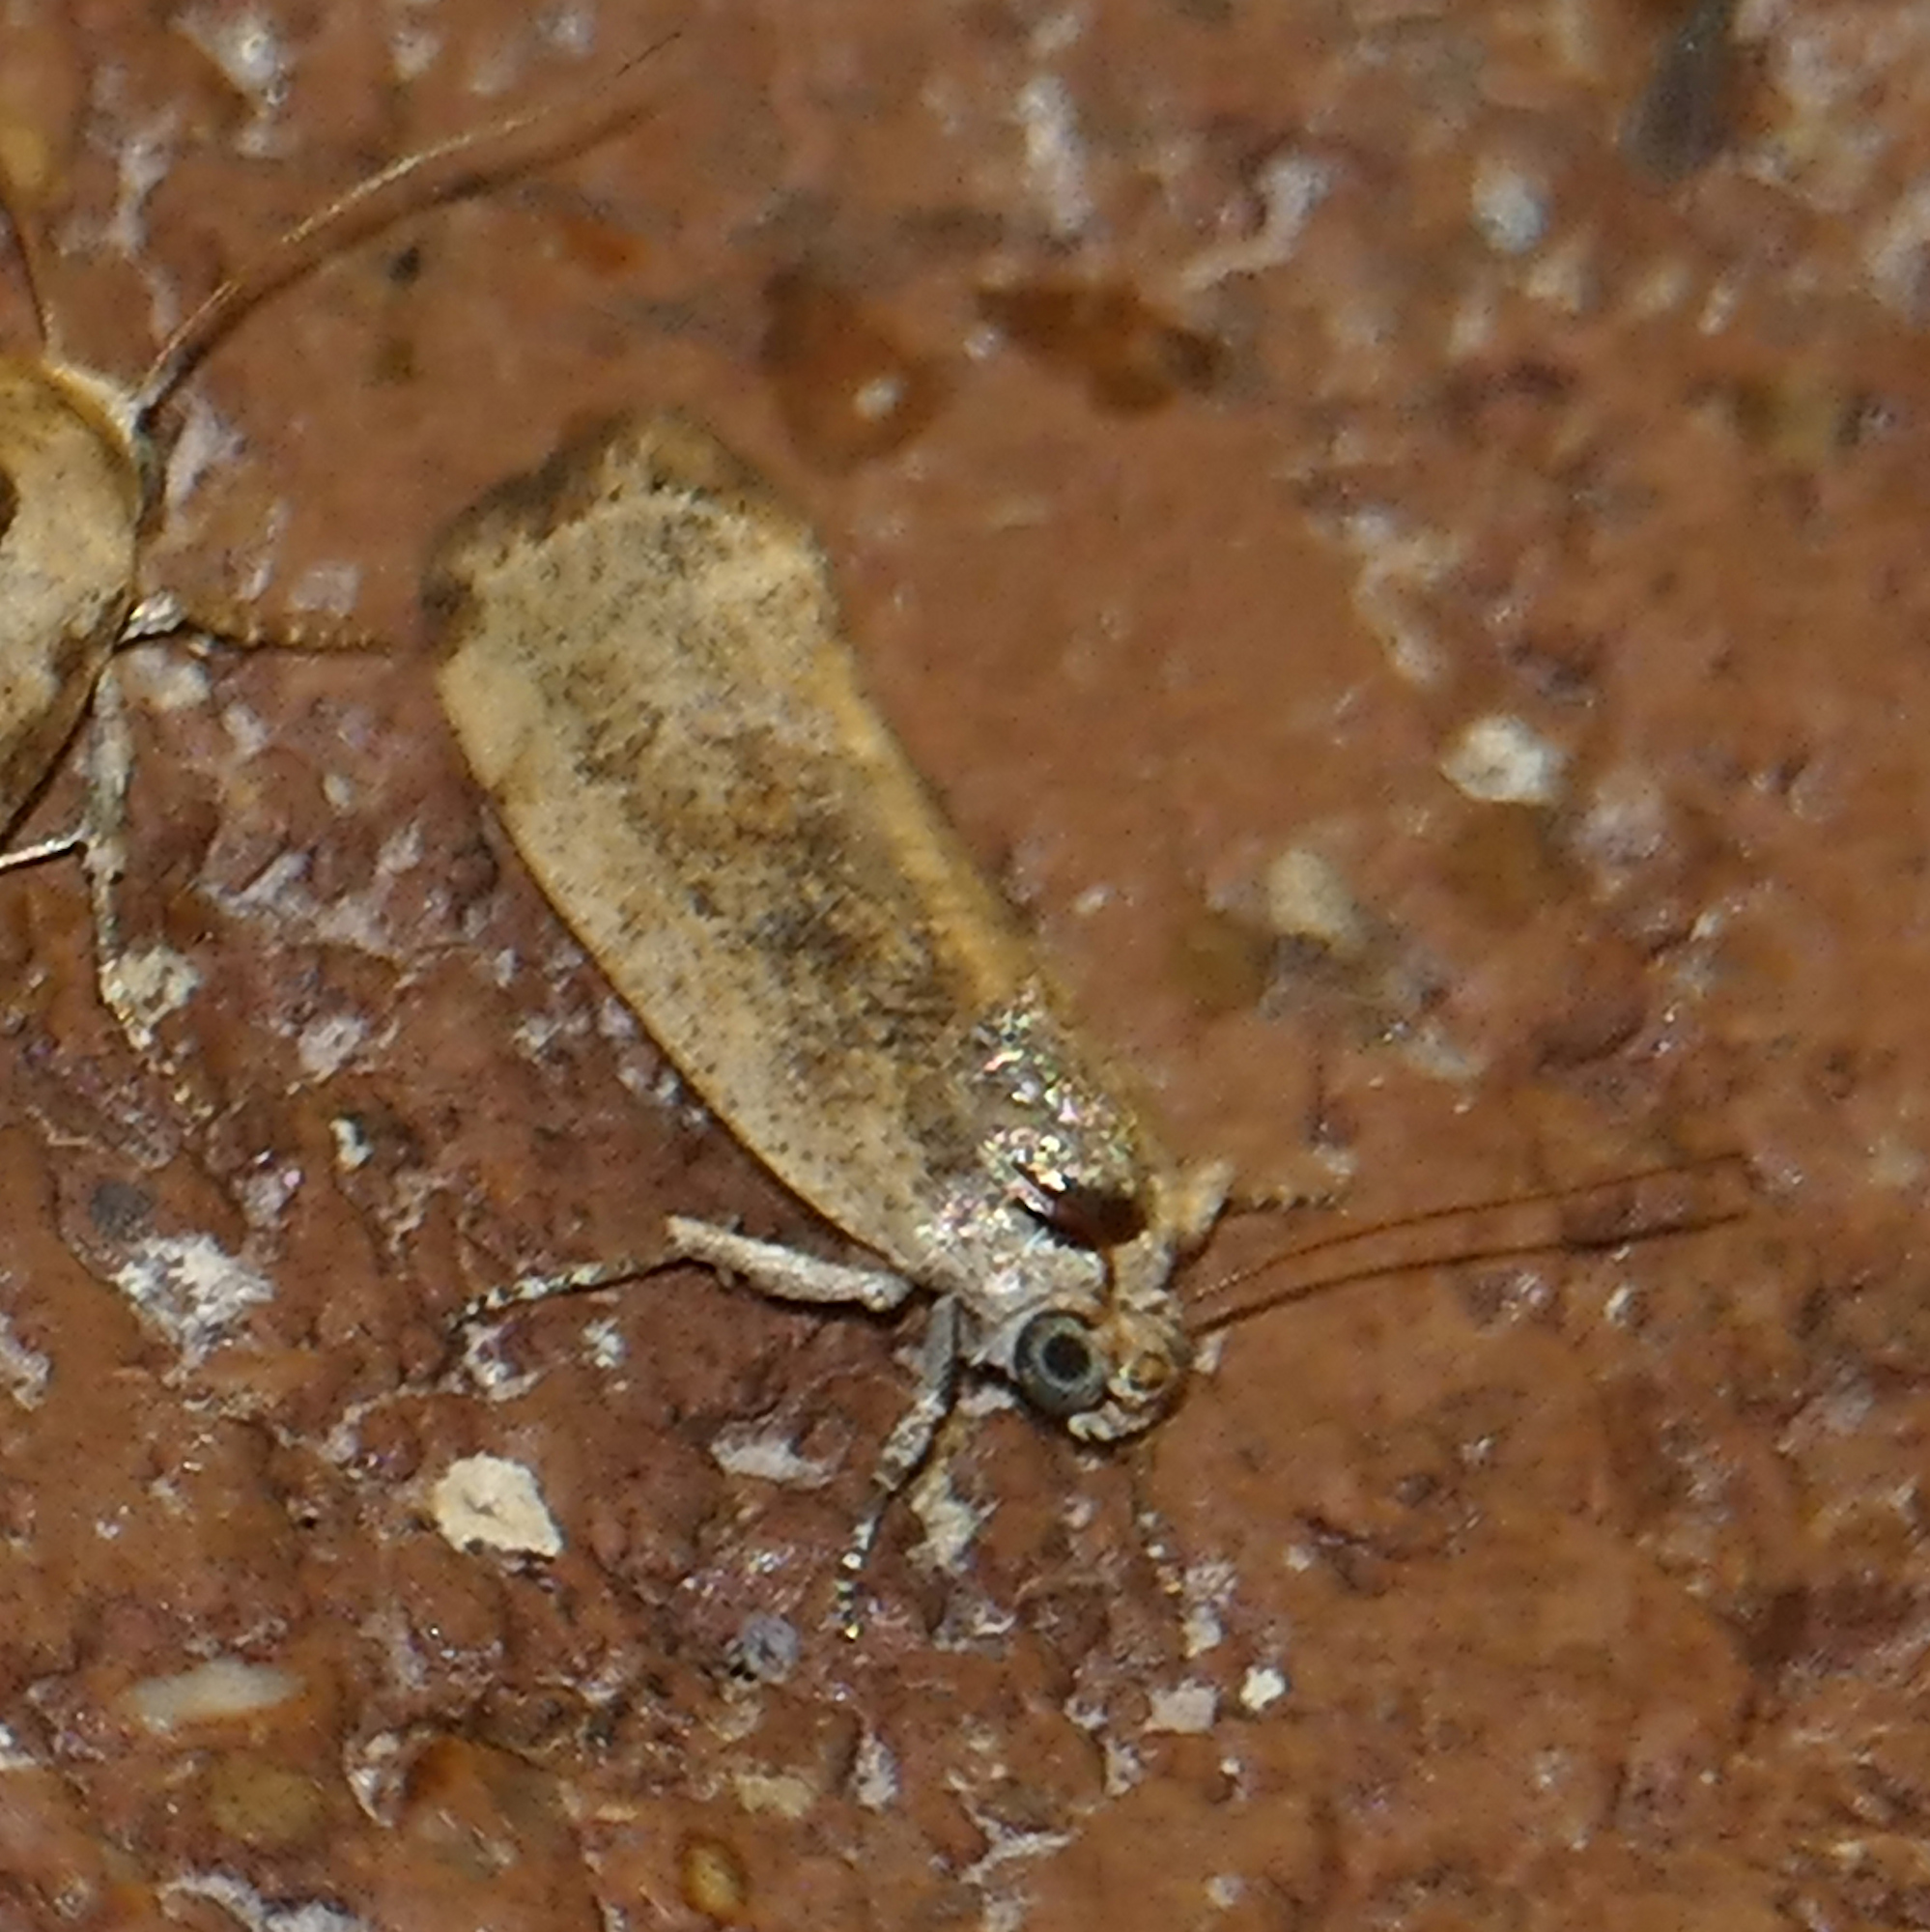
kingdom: Animalia
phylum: Arthropoda
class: Insecta
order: Lepidoptera
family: Noctuidae
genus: Acontia
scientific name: Acontia fasciatella
